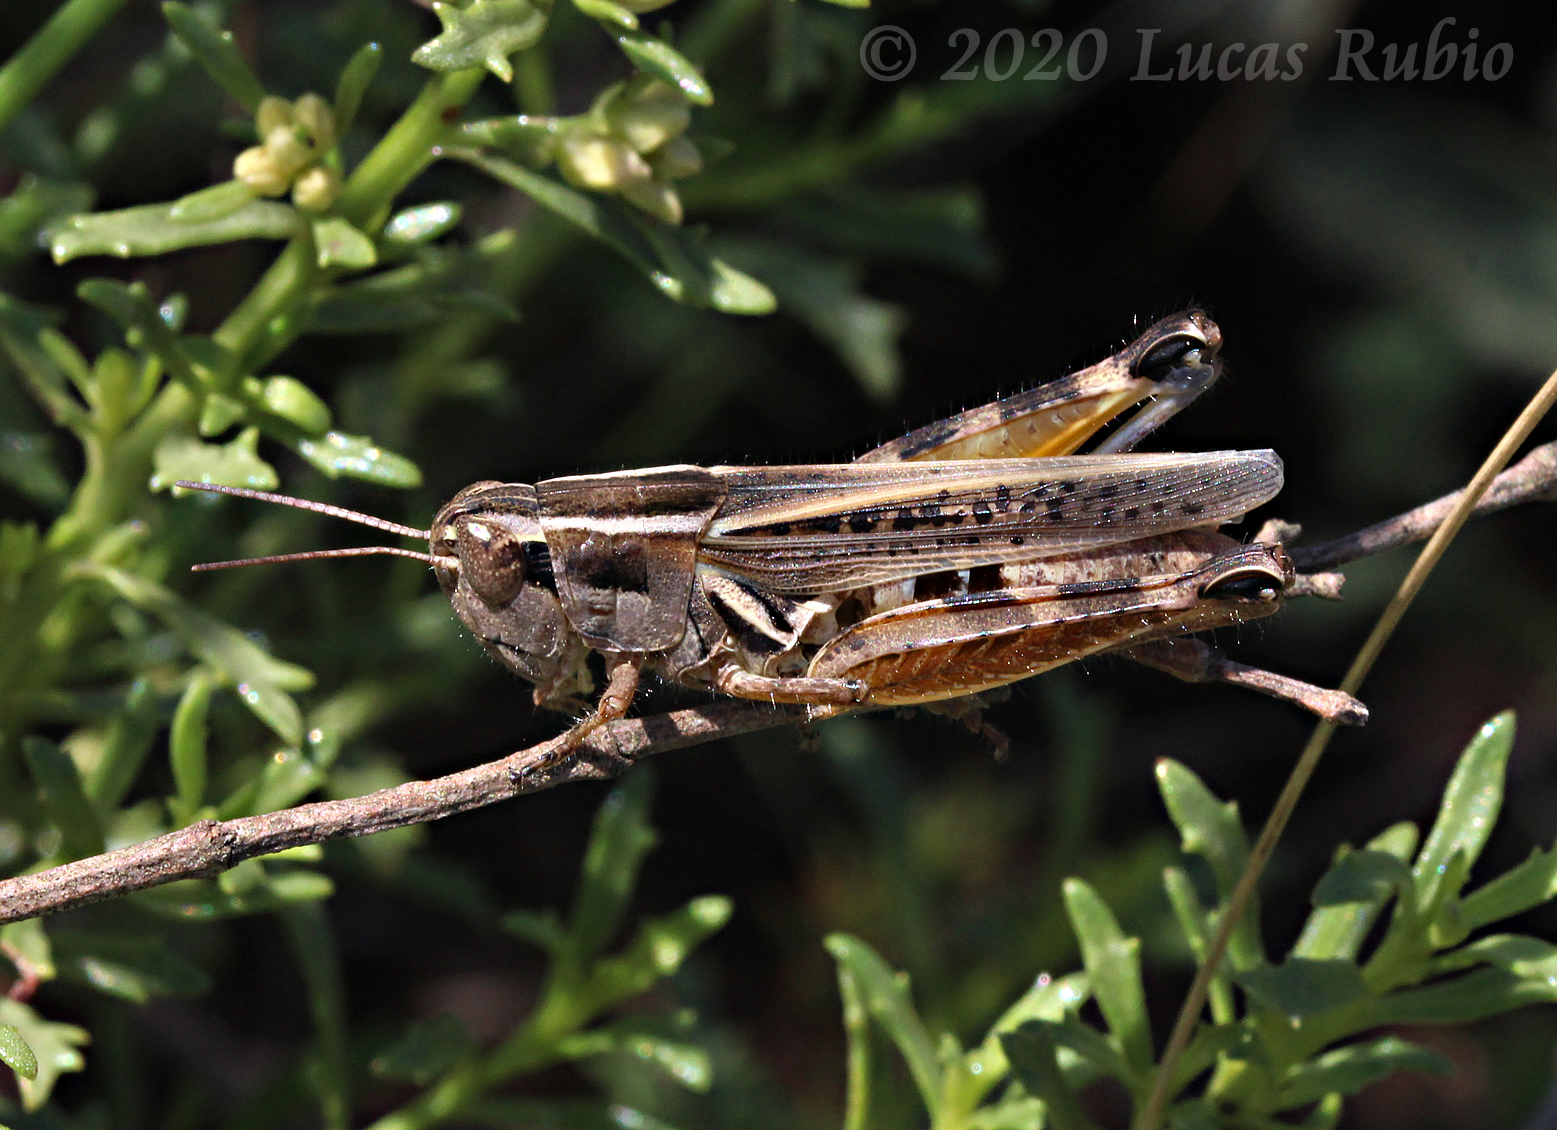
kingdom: Animalia
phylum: Arthropoda
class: Insecta
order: Orthoptera
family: Acrididae
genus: Dichroplus
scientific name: Dichroplus pratensis
